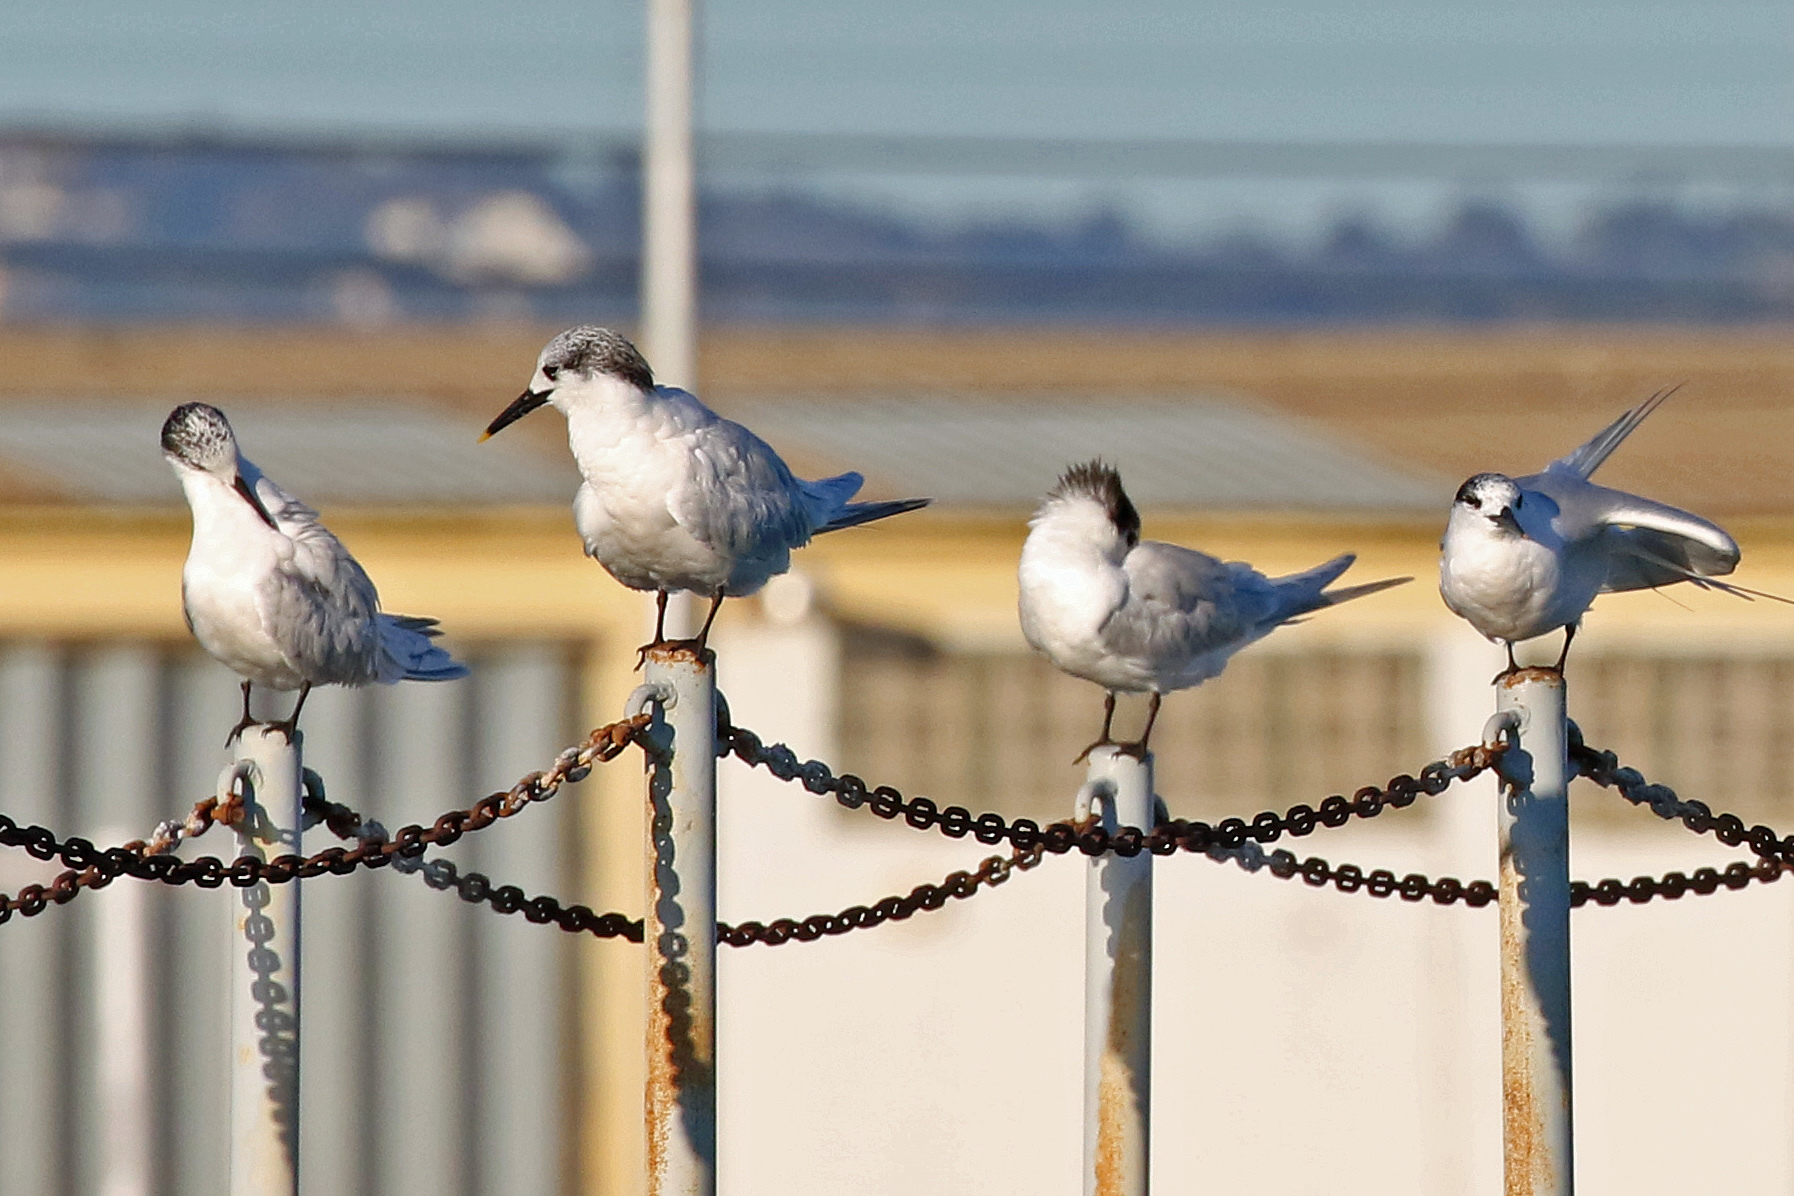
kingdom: Animalia
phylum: Chordata
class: Aves
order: Charadriiformes
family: Laridae
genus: Thalasseus
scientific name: Thalasseus sandvicensis
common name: Sandwich tern
